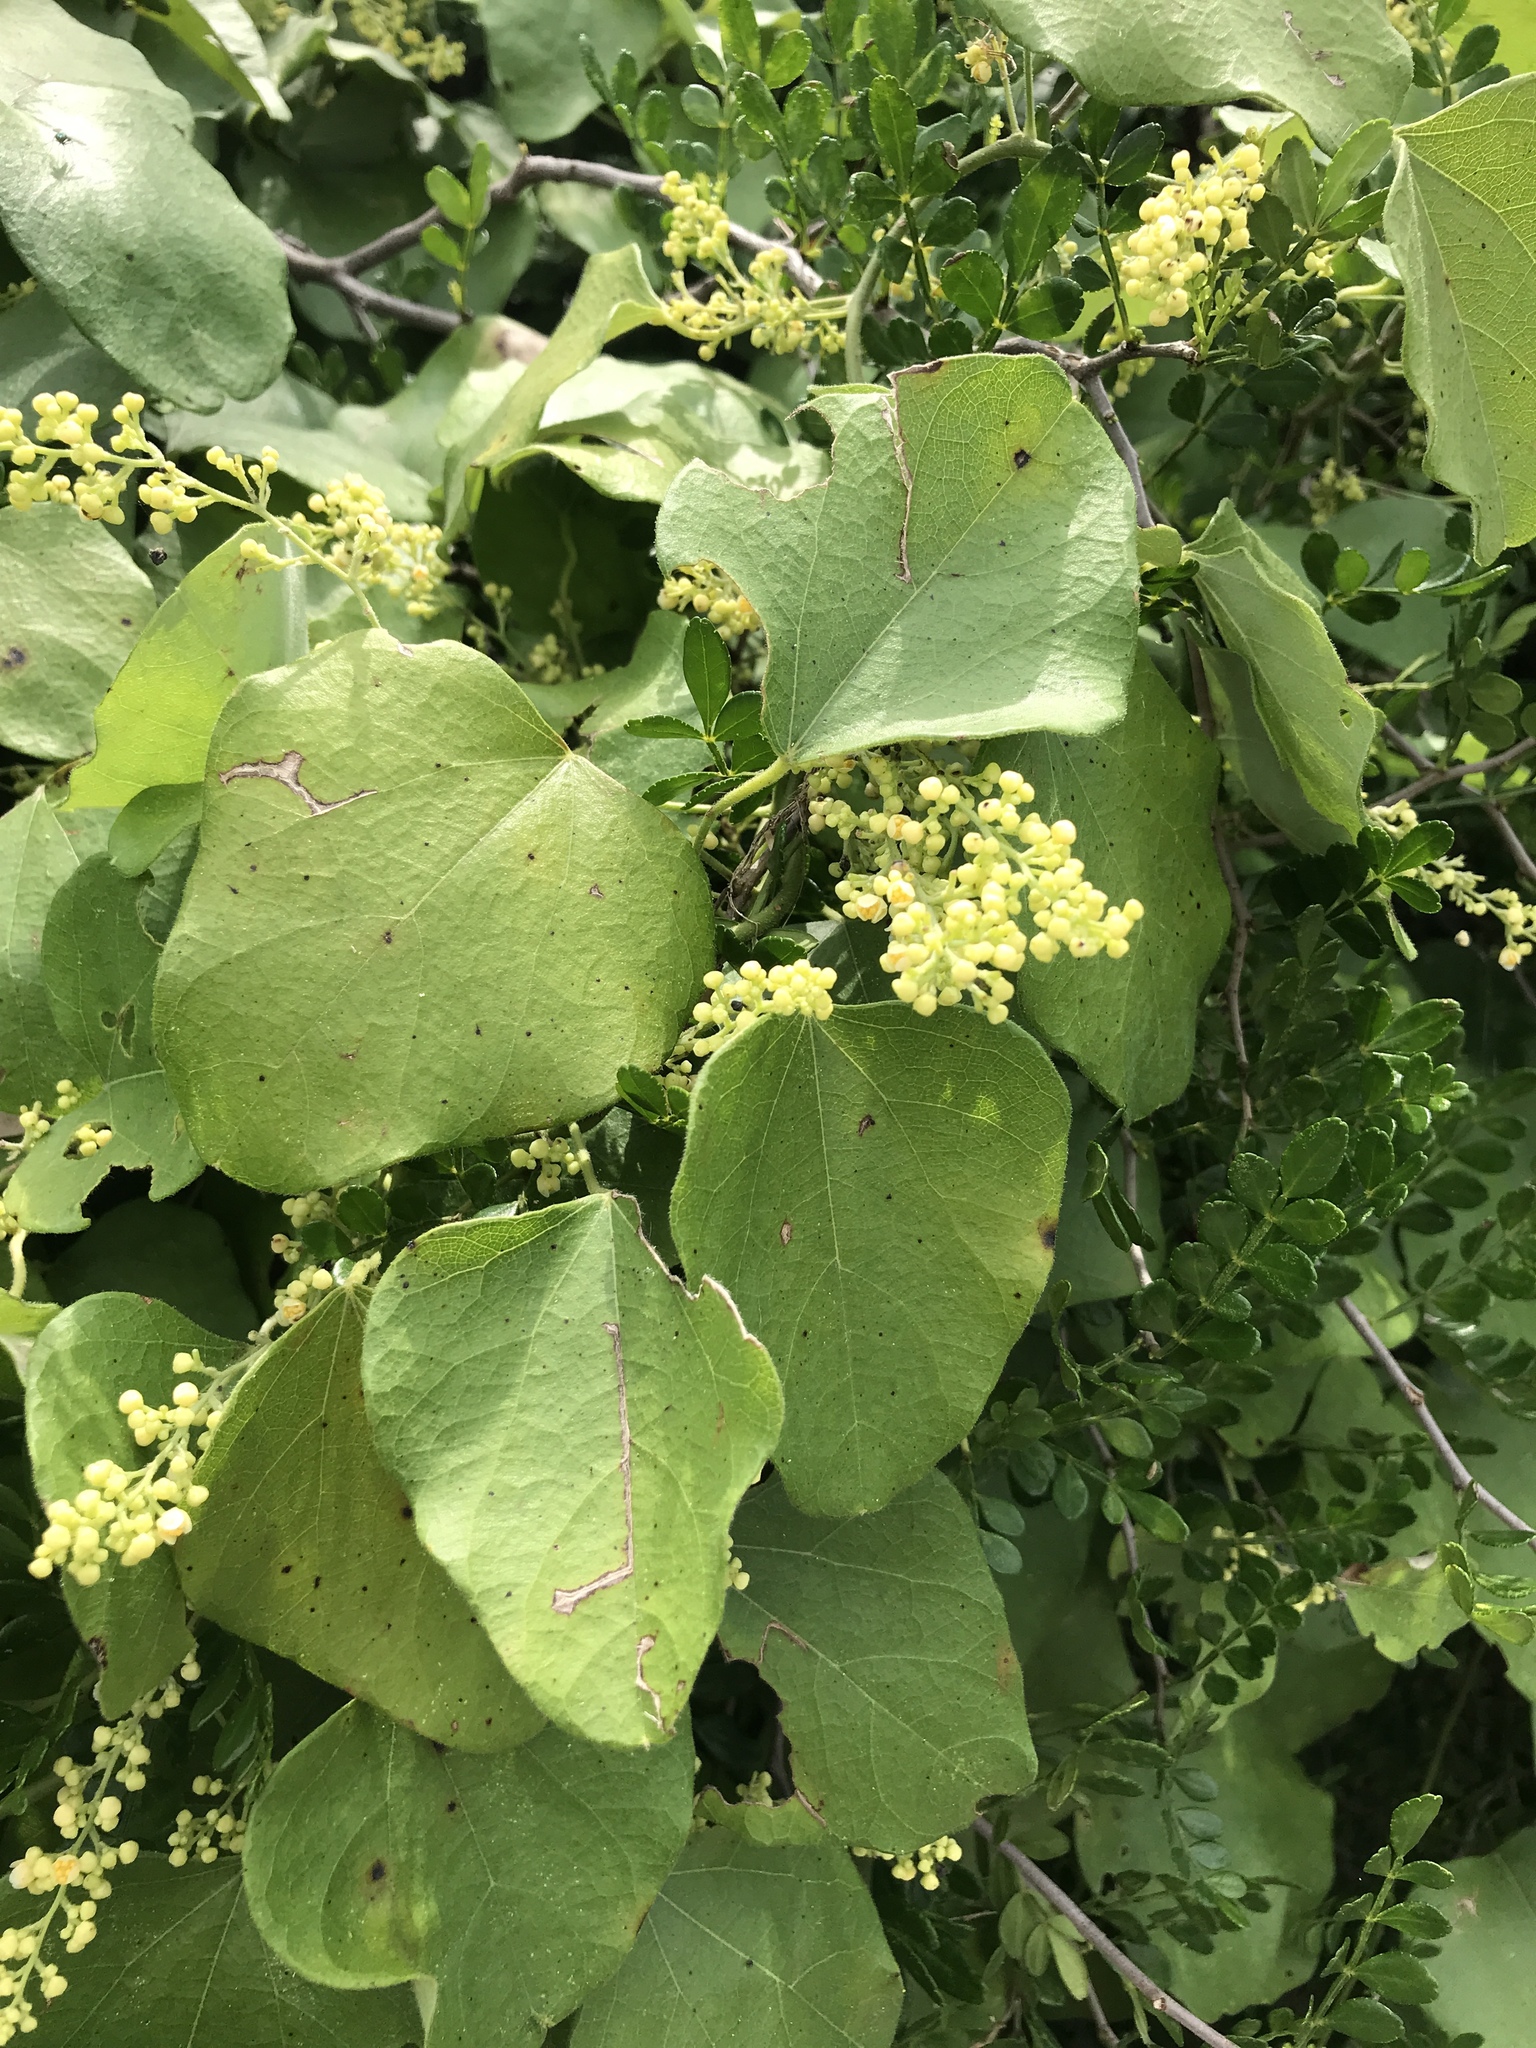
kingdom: Plantae
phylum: Tracheophyta
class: Magnoliopsida
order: Ranunculales
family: Menispermaceae
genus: Cocculus
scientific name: Cocculus carolinus
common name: Carolina moonseed
